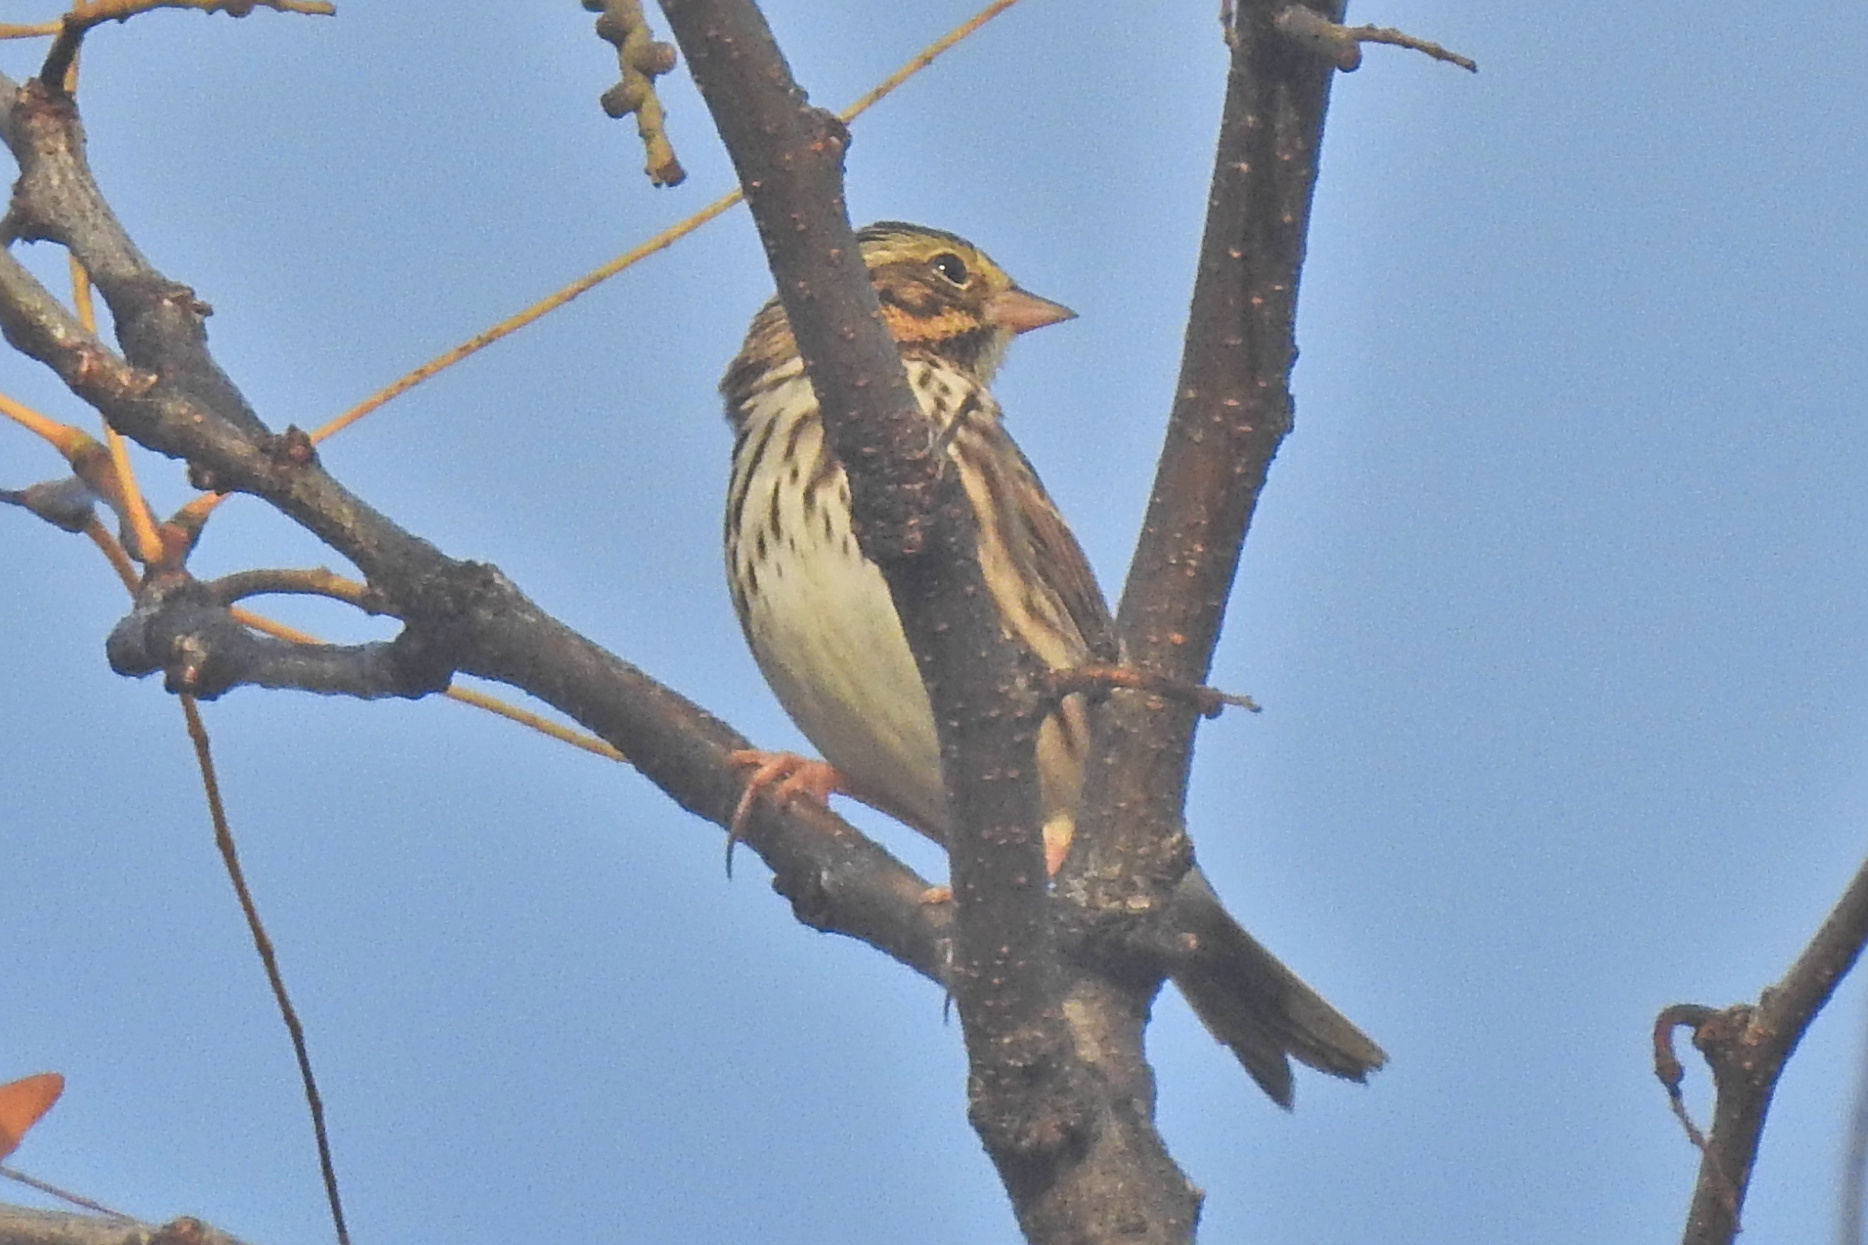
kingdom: Animalia
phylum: Chordata
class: Aves
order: Passeriformes
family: Passerellidae
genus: Passerculus
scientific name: Passerculus sandwichensis
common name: Savannah sparrow
